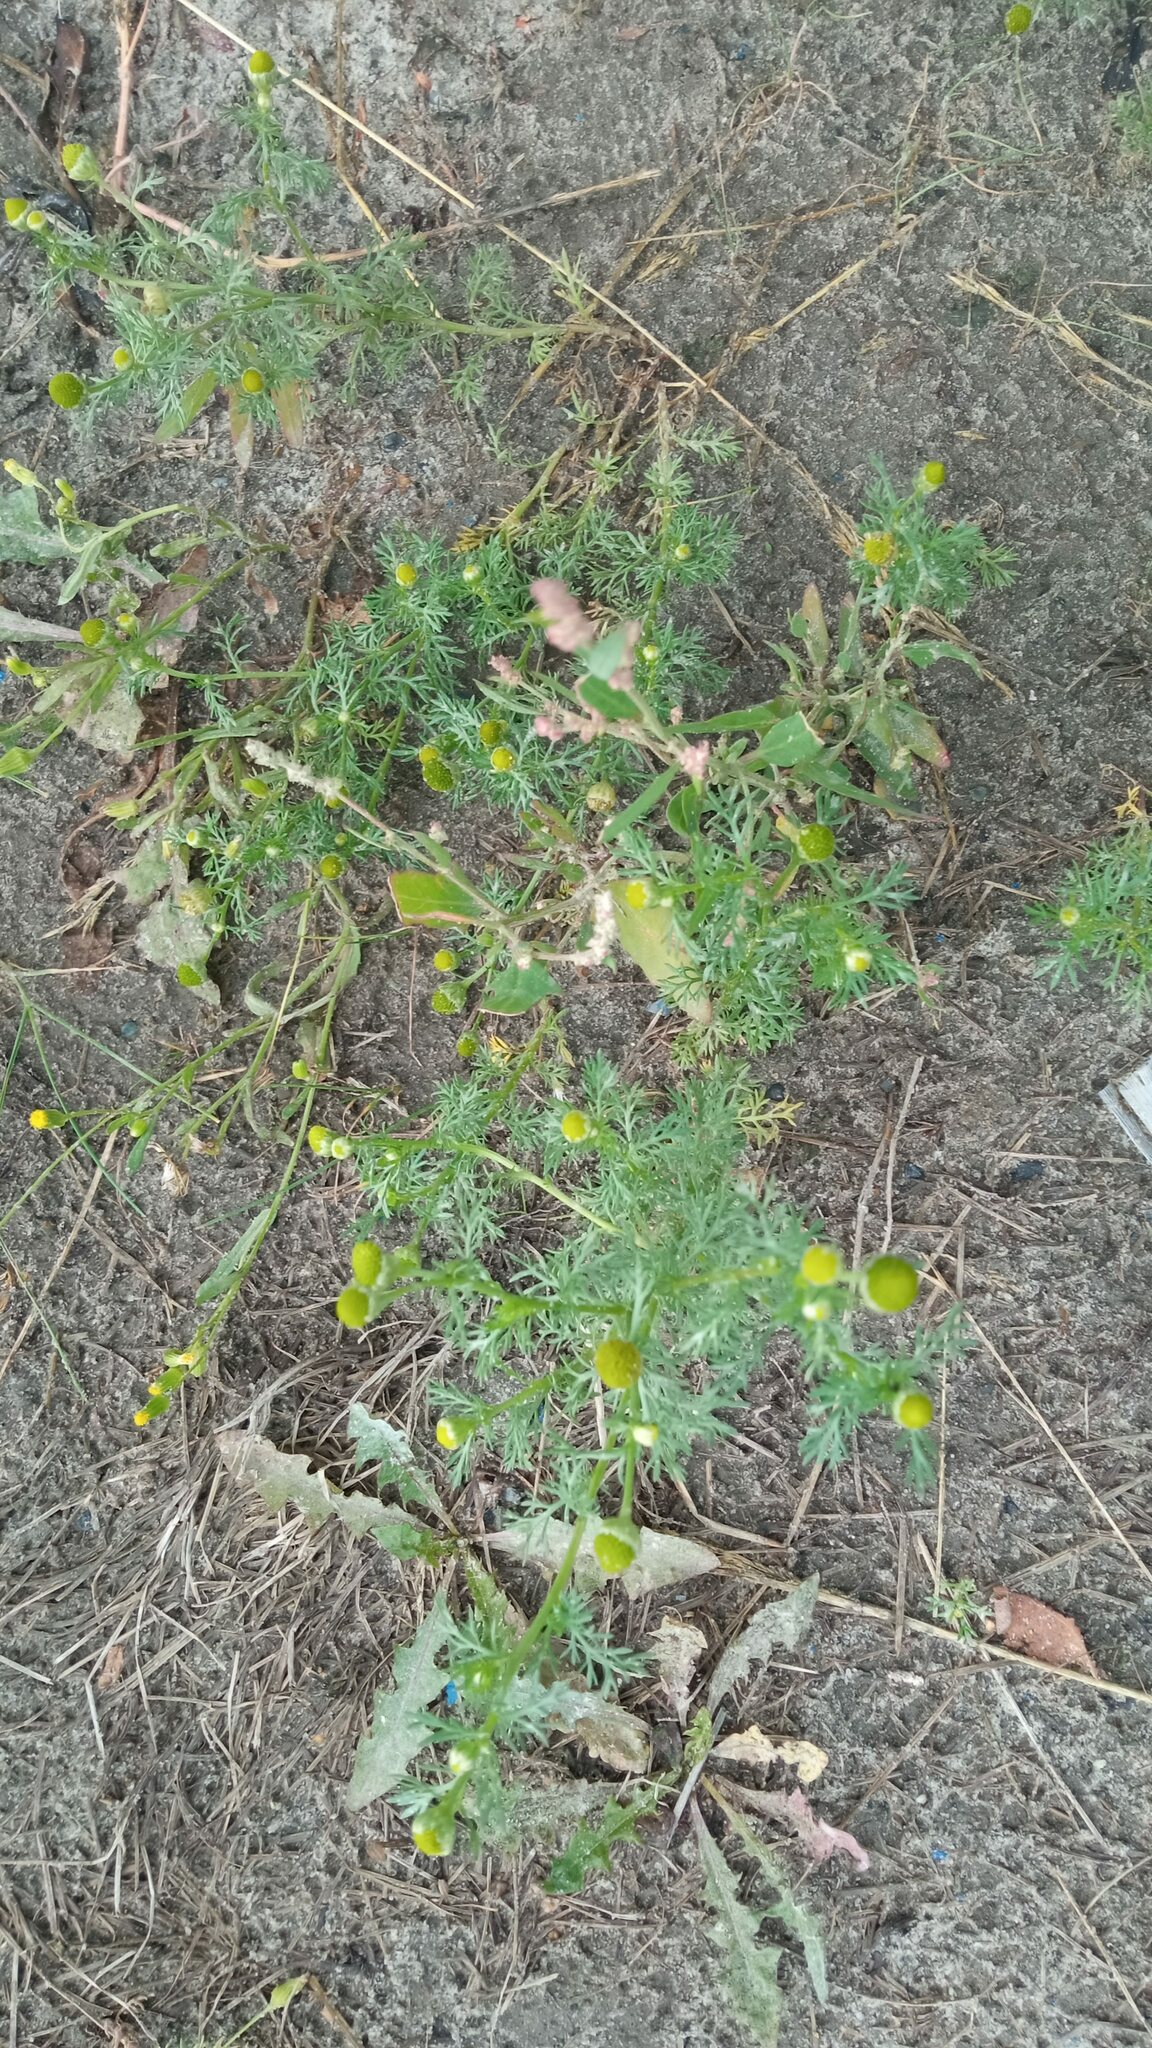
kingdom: Plantae
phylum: Tracheophyta
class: Magnoliopsida
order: Asterales
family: Asteraceae
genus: Matricaria
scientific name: Matricaria discoidea
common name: Disc mayweed
